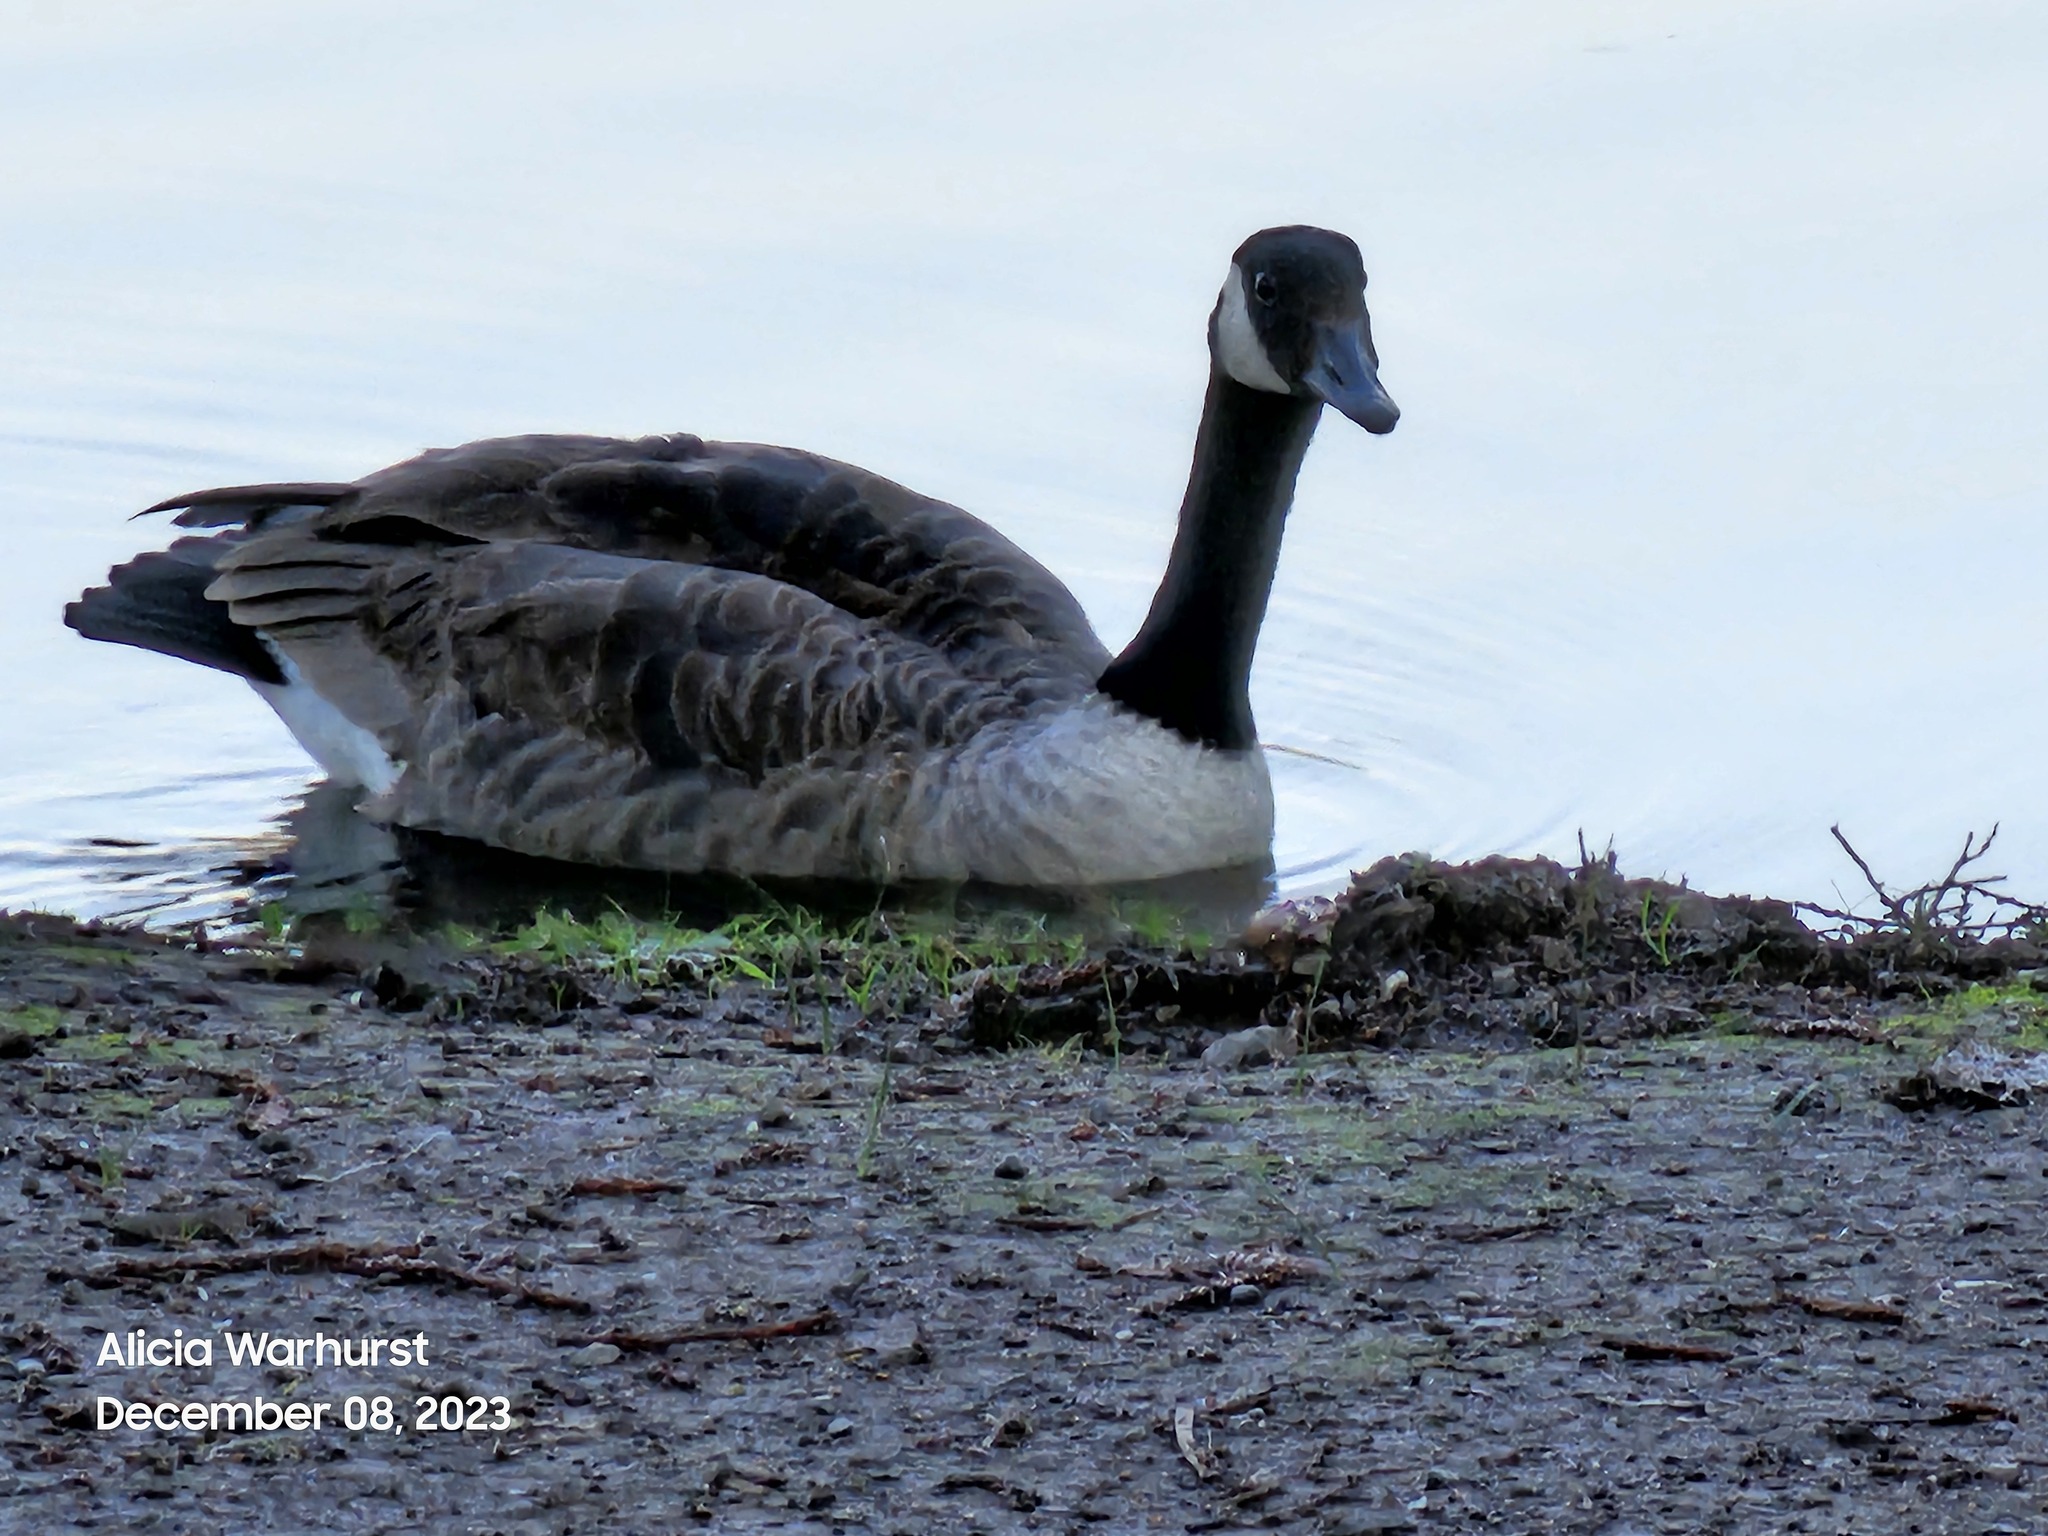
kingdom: Animalia
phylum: Chordata
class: Aves
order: Anseriformes
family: Anatidae
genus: Branta
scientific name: Branta canadensis
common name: Canada goose
